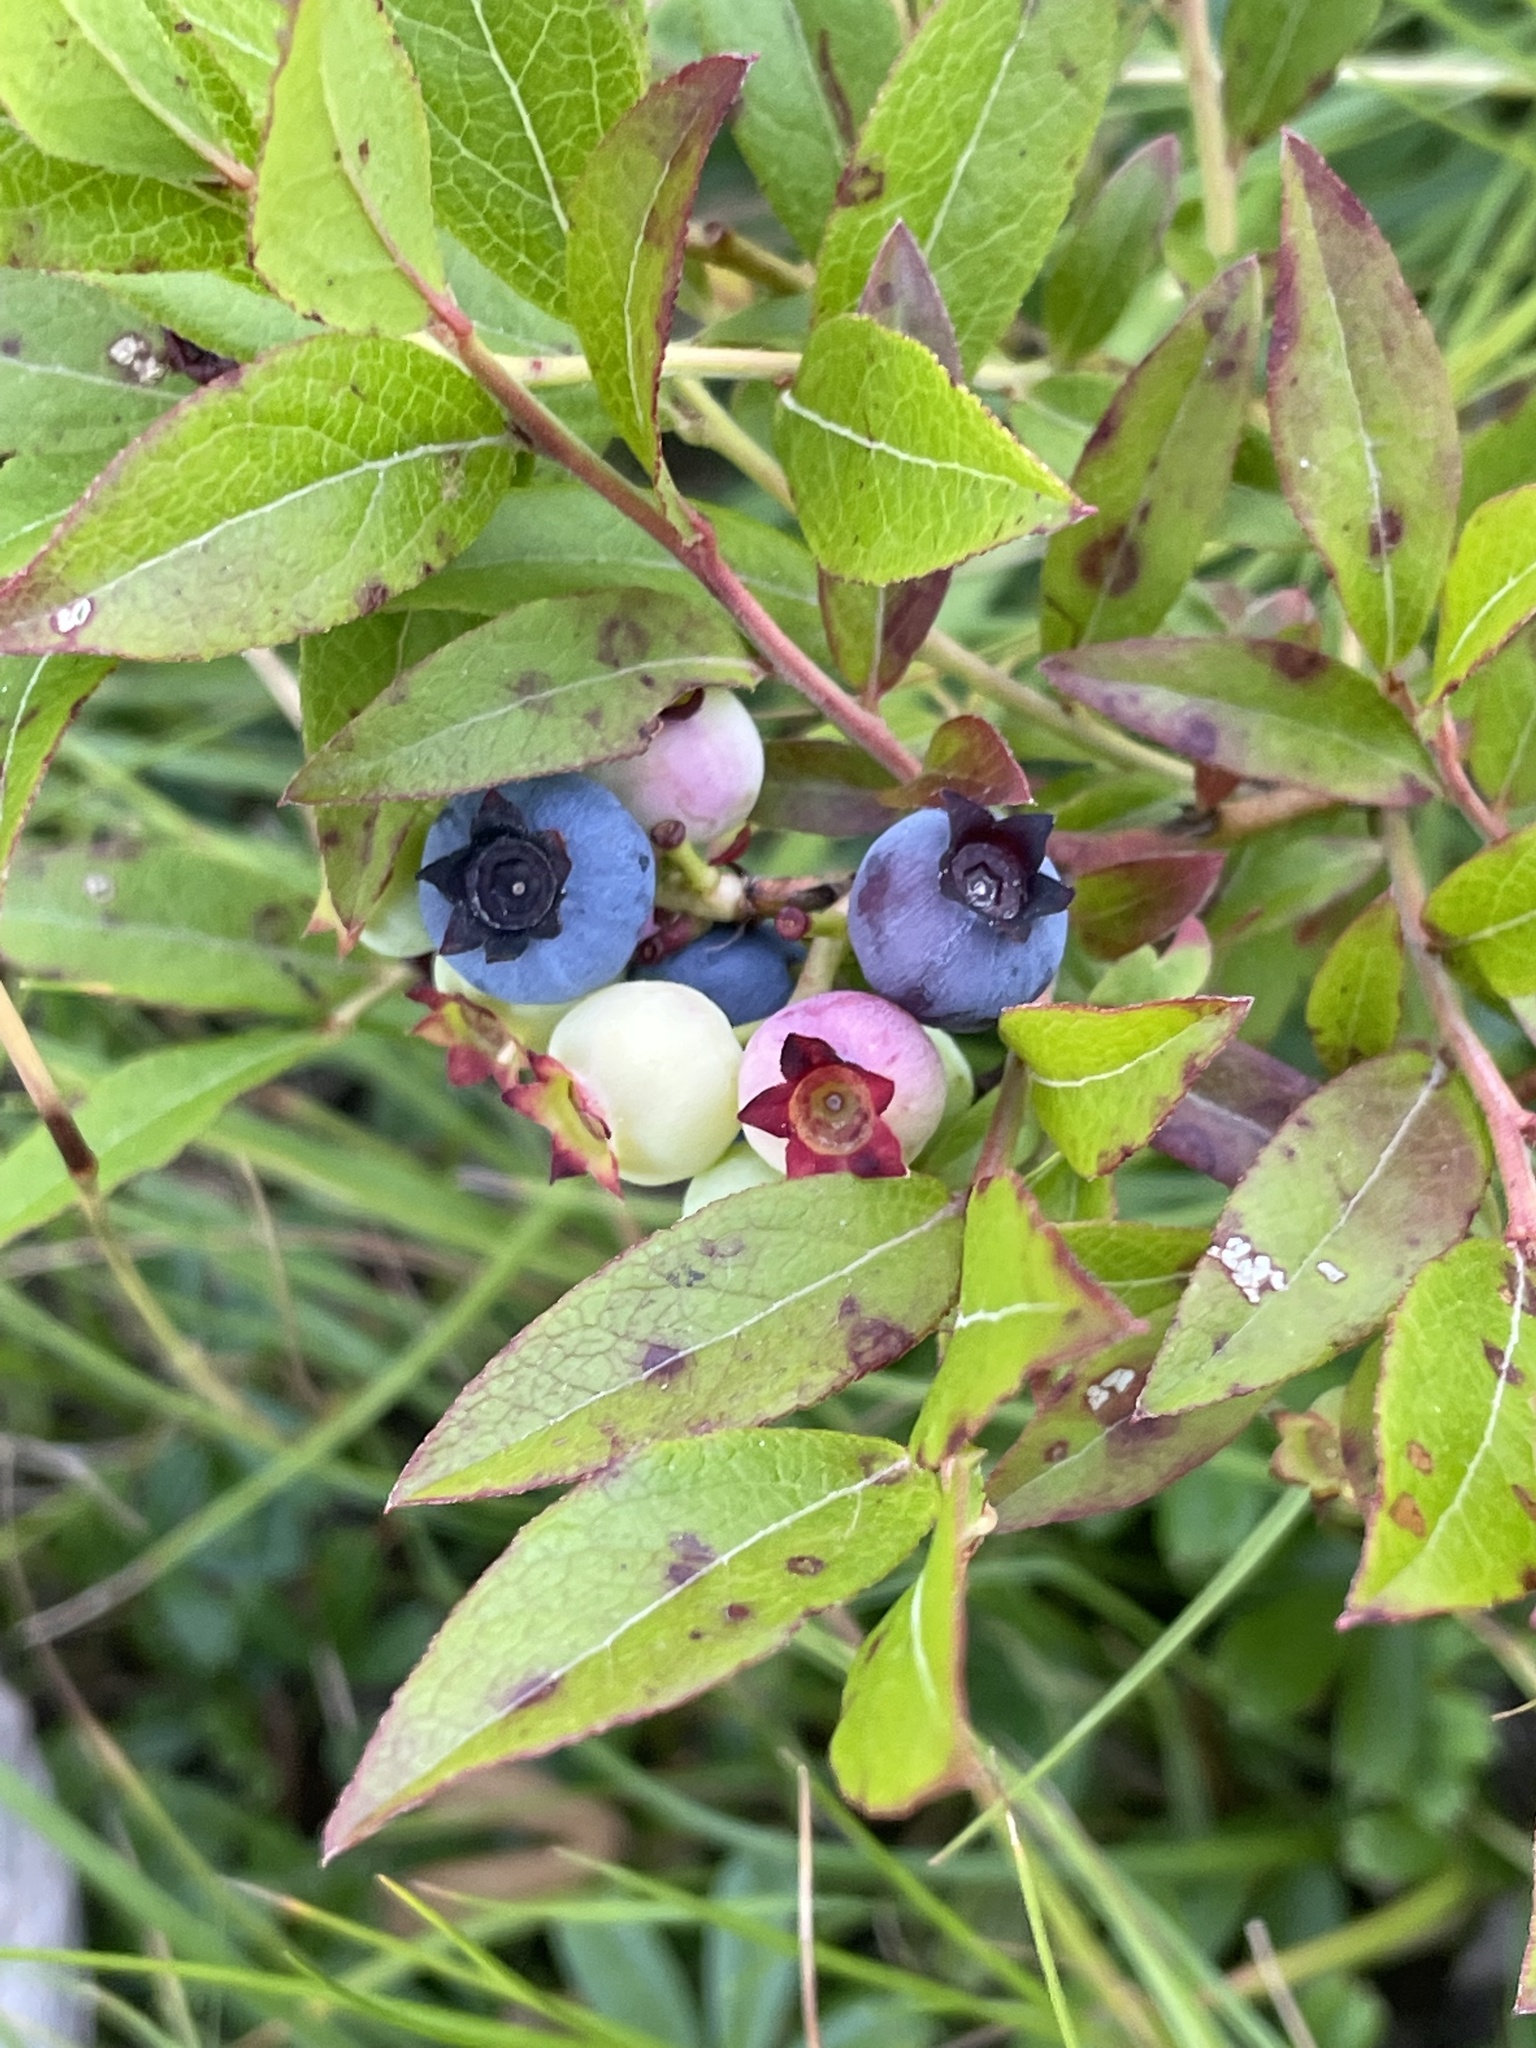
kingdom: Plantae
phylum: Tracheophyta
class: Magnoliopsida
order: Ericales
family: Ericaceae
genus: Vaccinium
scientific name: Vaccinium angustifolium
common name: Early lowbush blueberry
